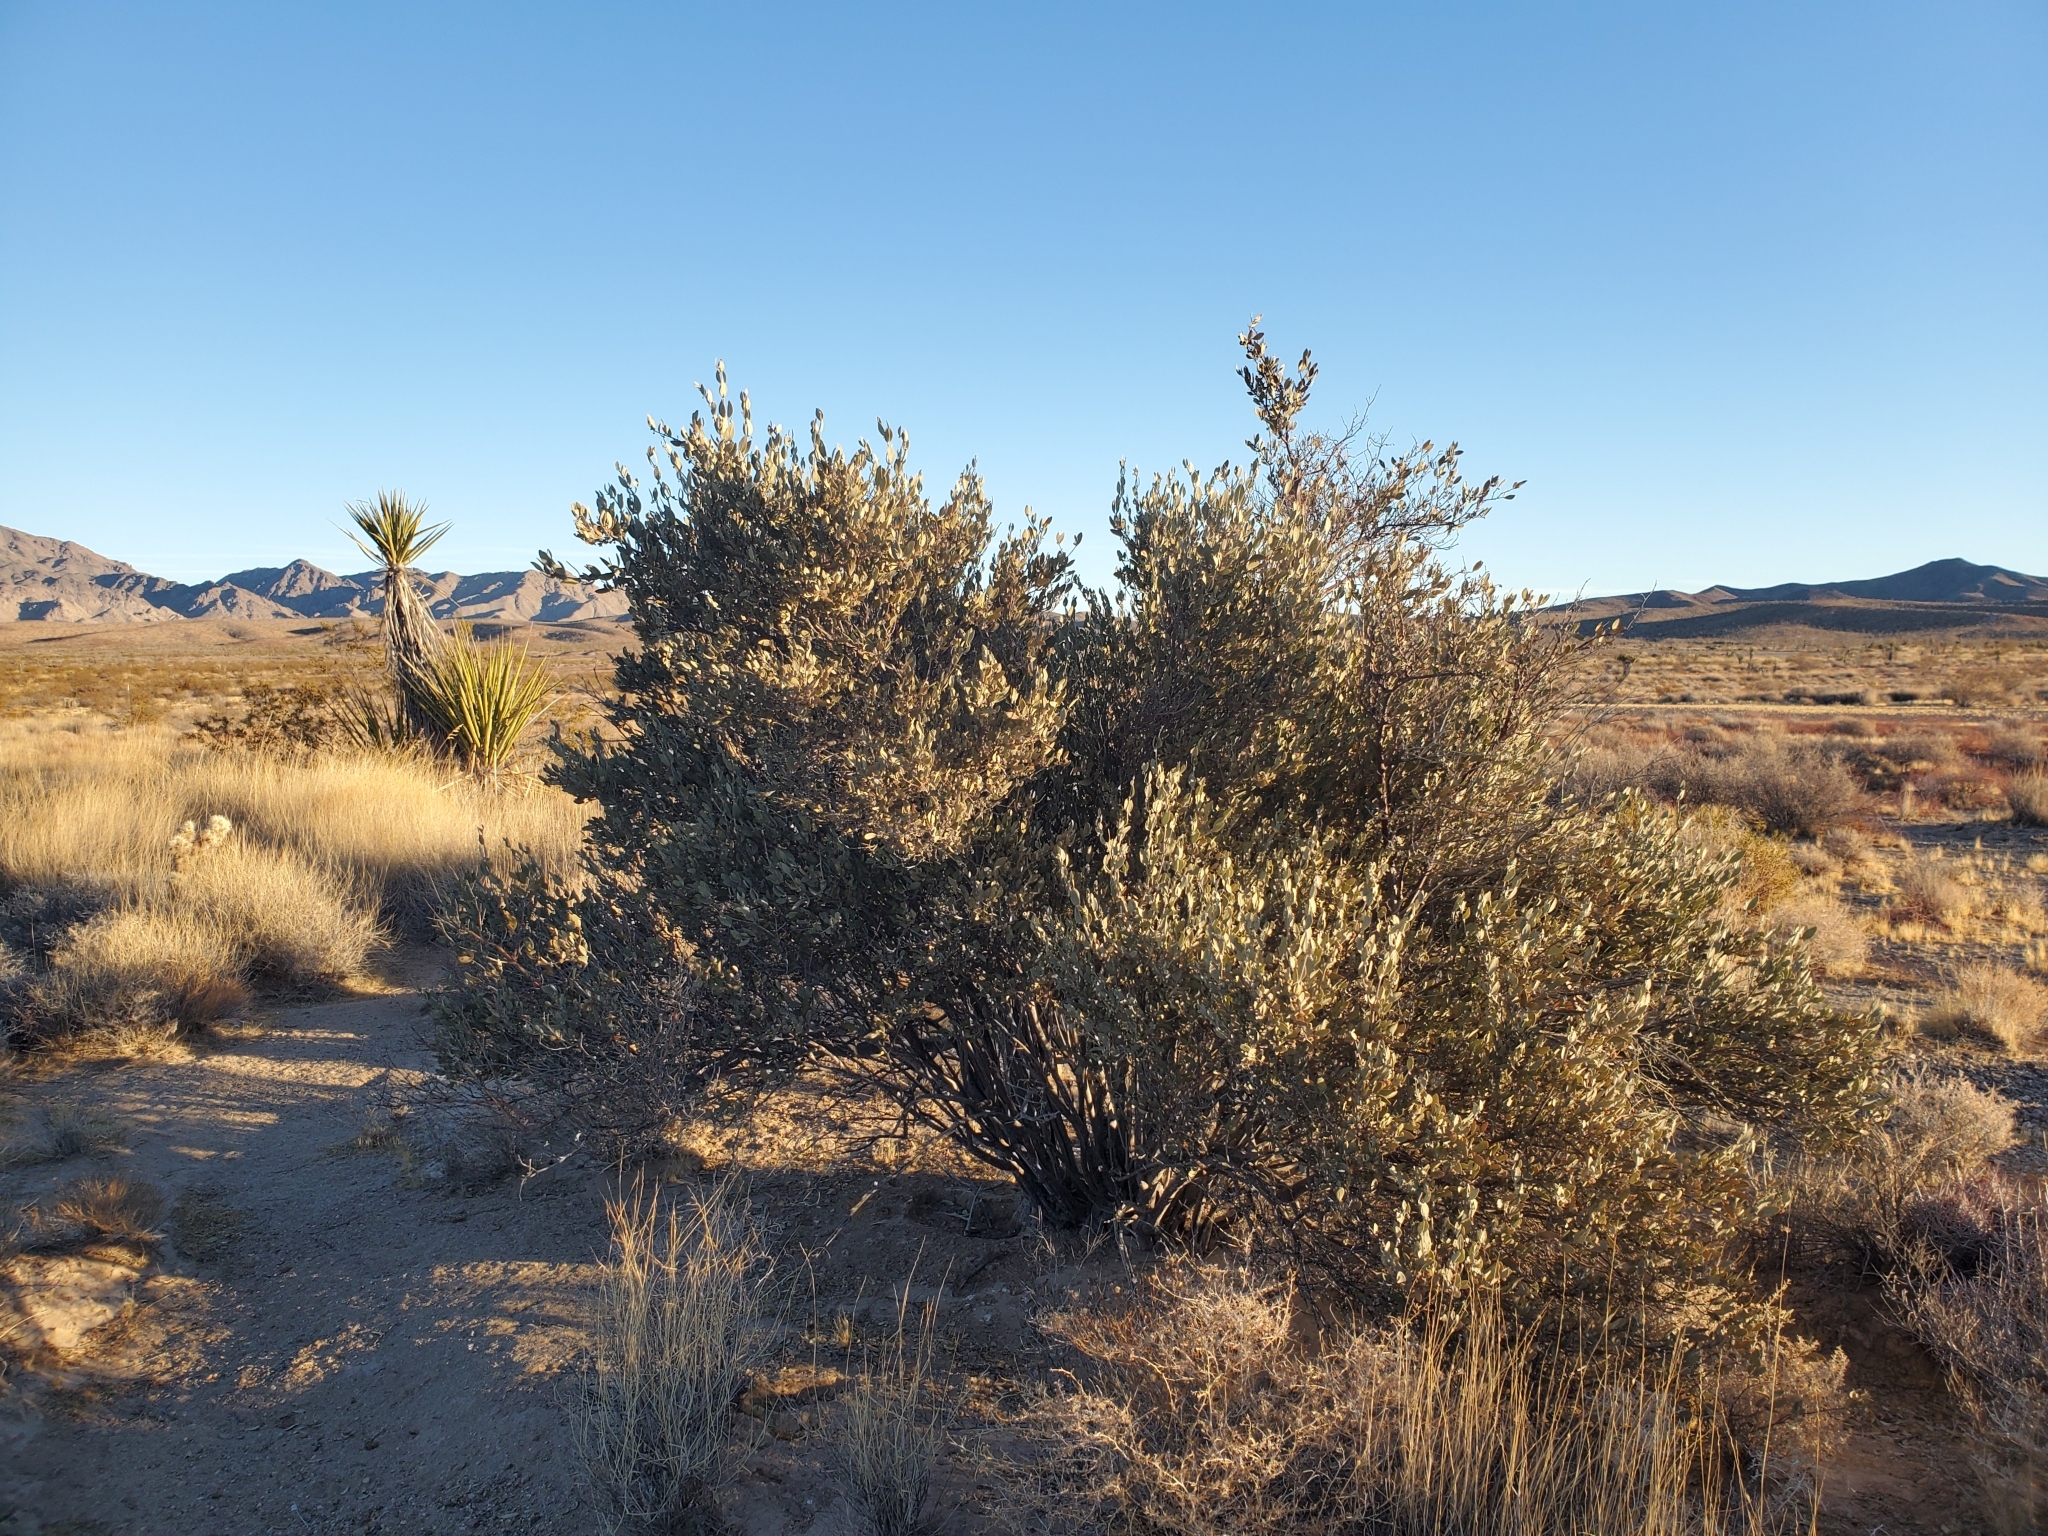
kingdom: Plantae
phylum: Tracheophyta
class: Magnoliopsida
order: Caryophyllales
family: Simmondsiaceae
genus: Simmondsia
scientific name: Simmondsia chinensis
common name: Jojoba
